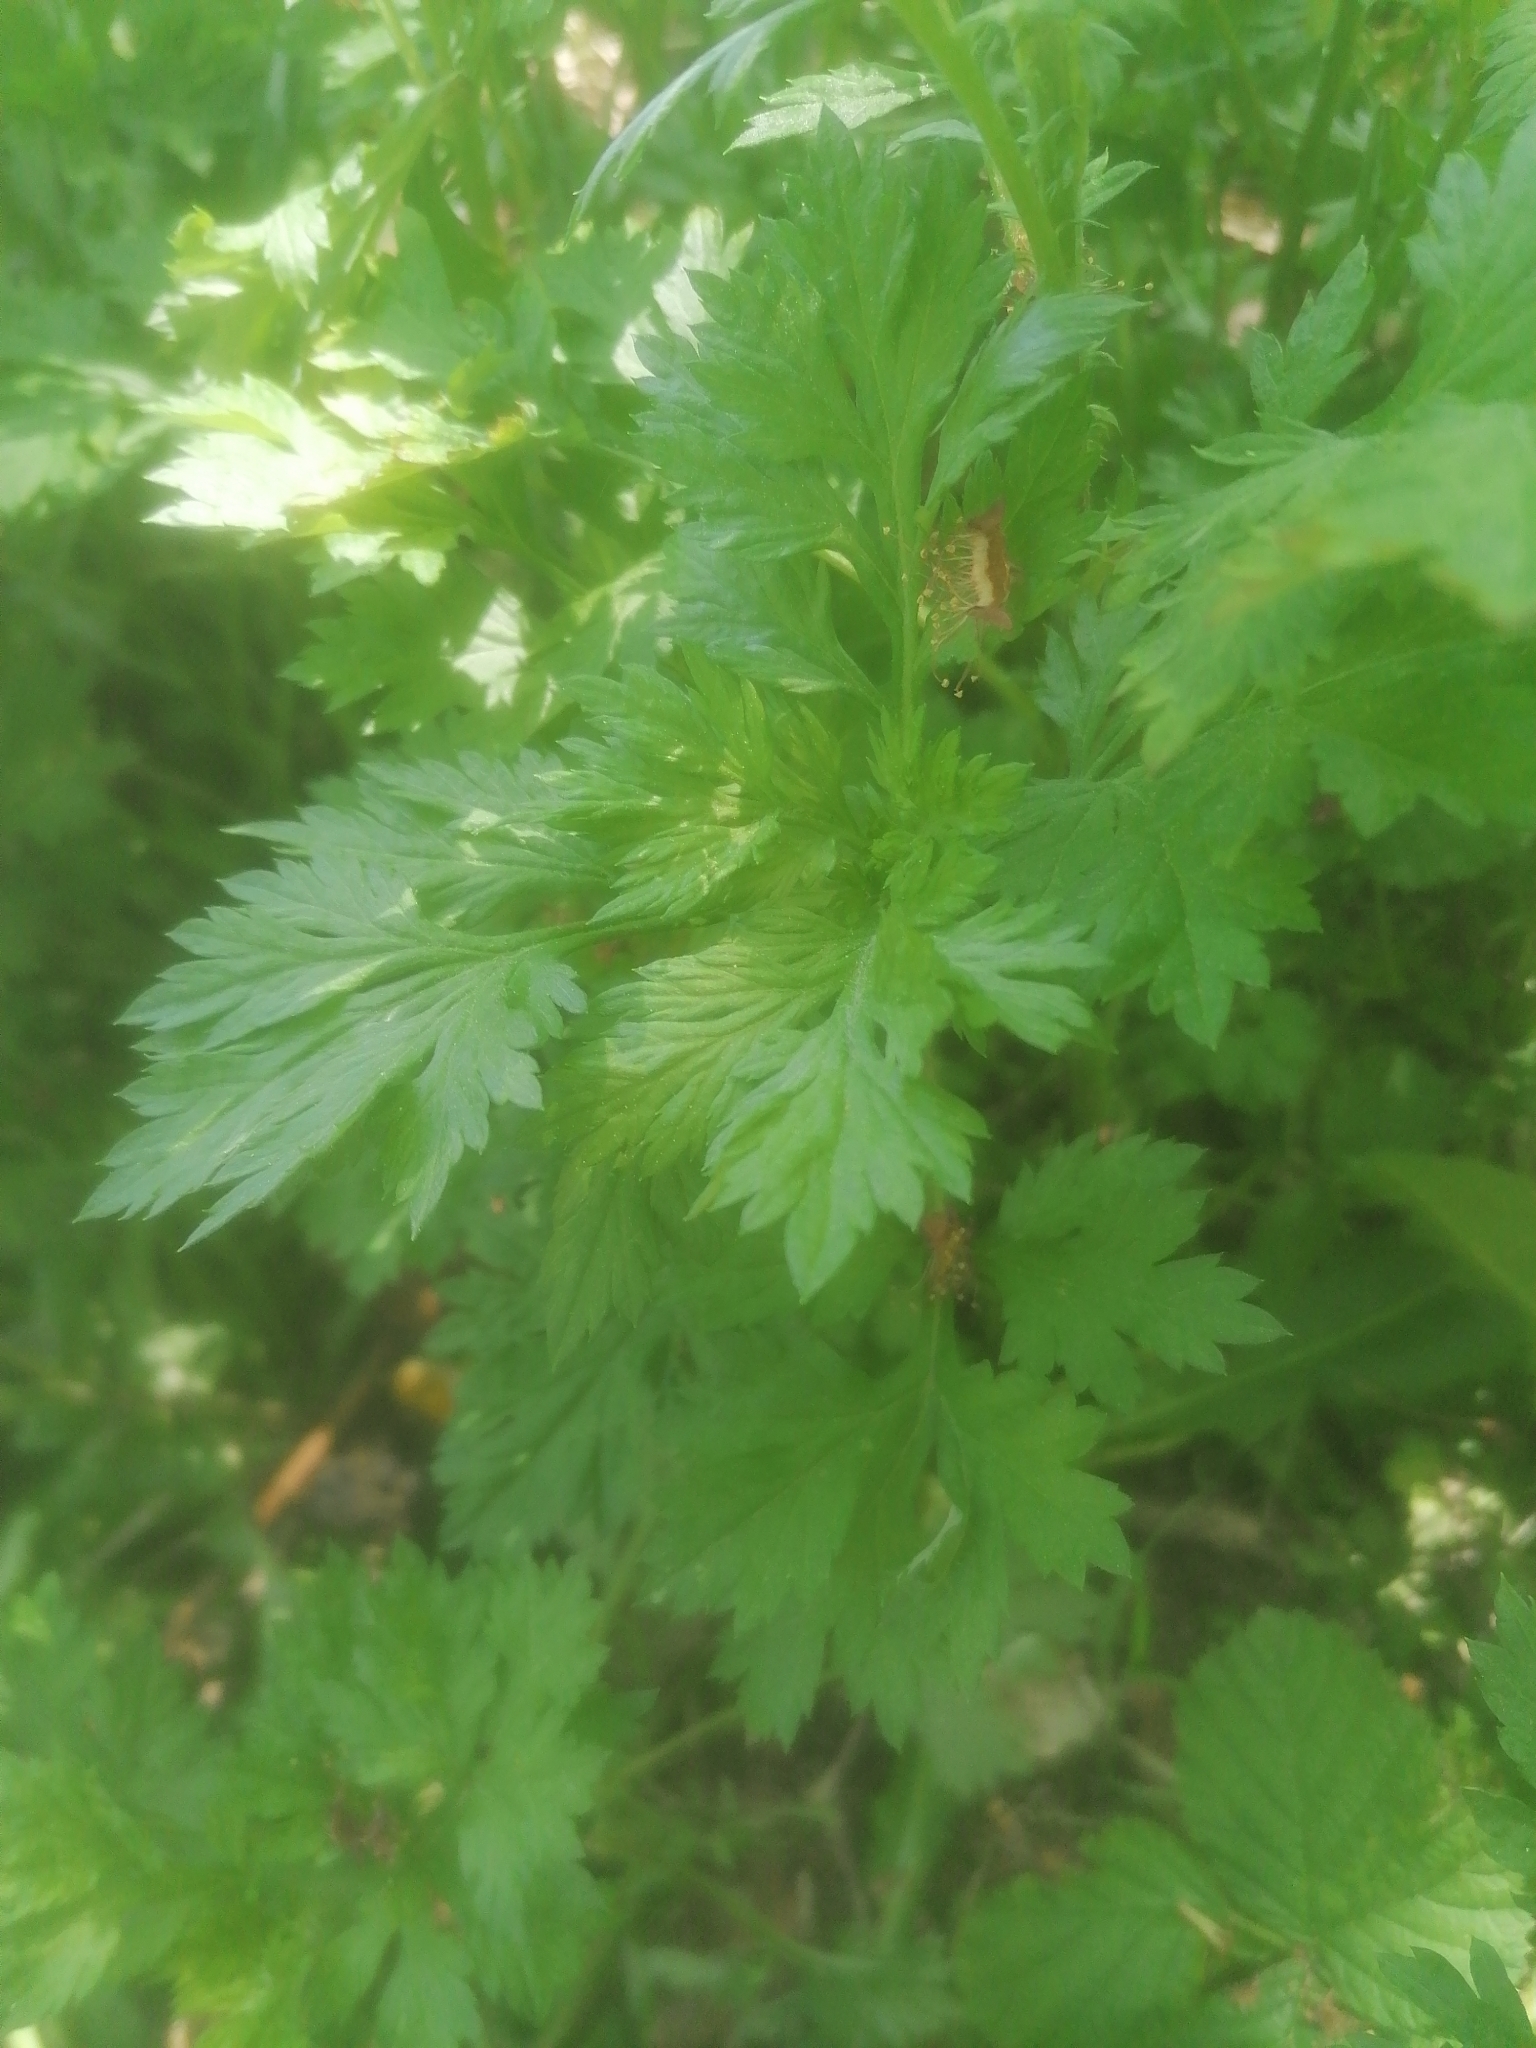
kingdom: Plantae
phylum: Tracheophyta
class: Magnoliopsida
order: Asterales
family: Asteraceae
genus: Artemisia
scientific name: Artemisia vulgaris
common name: Mugwort
